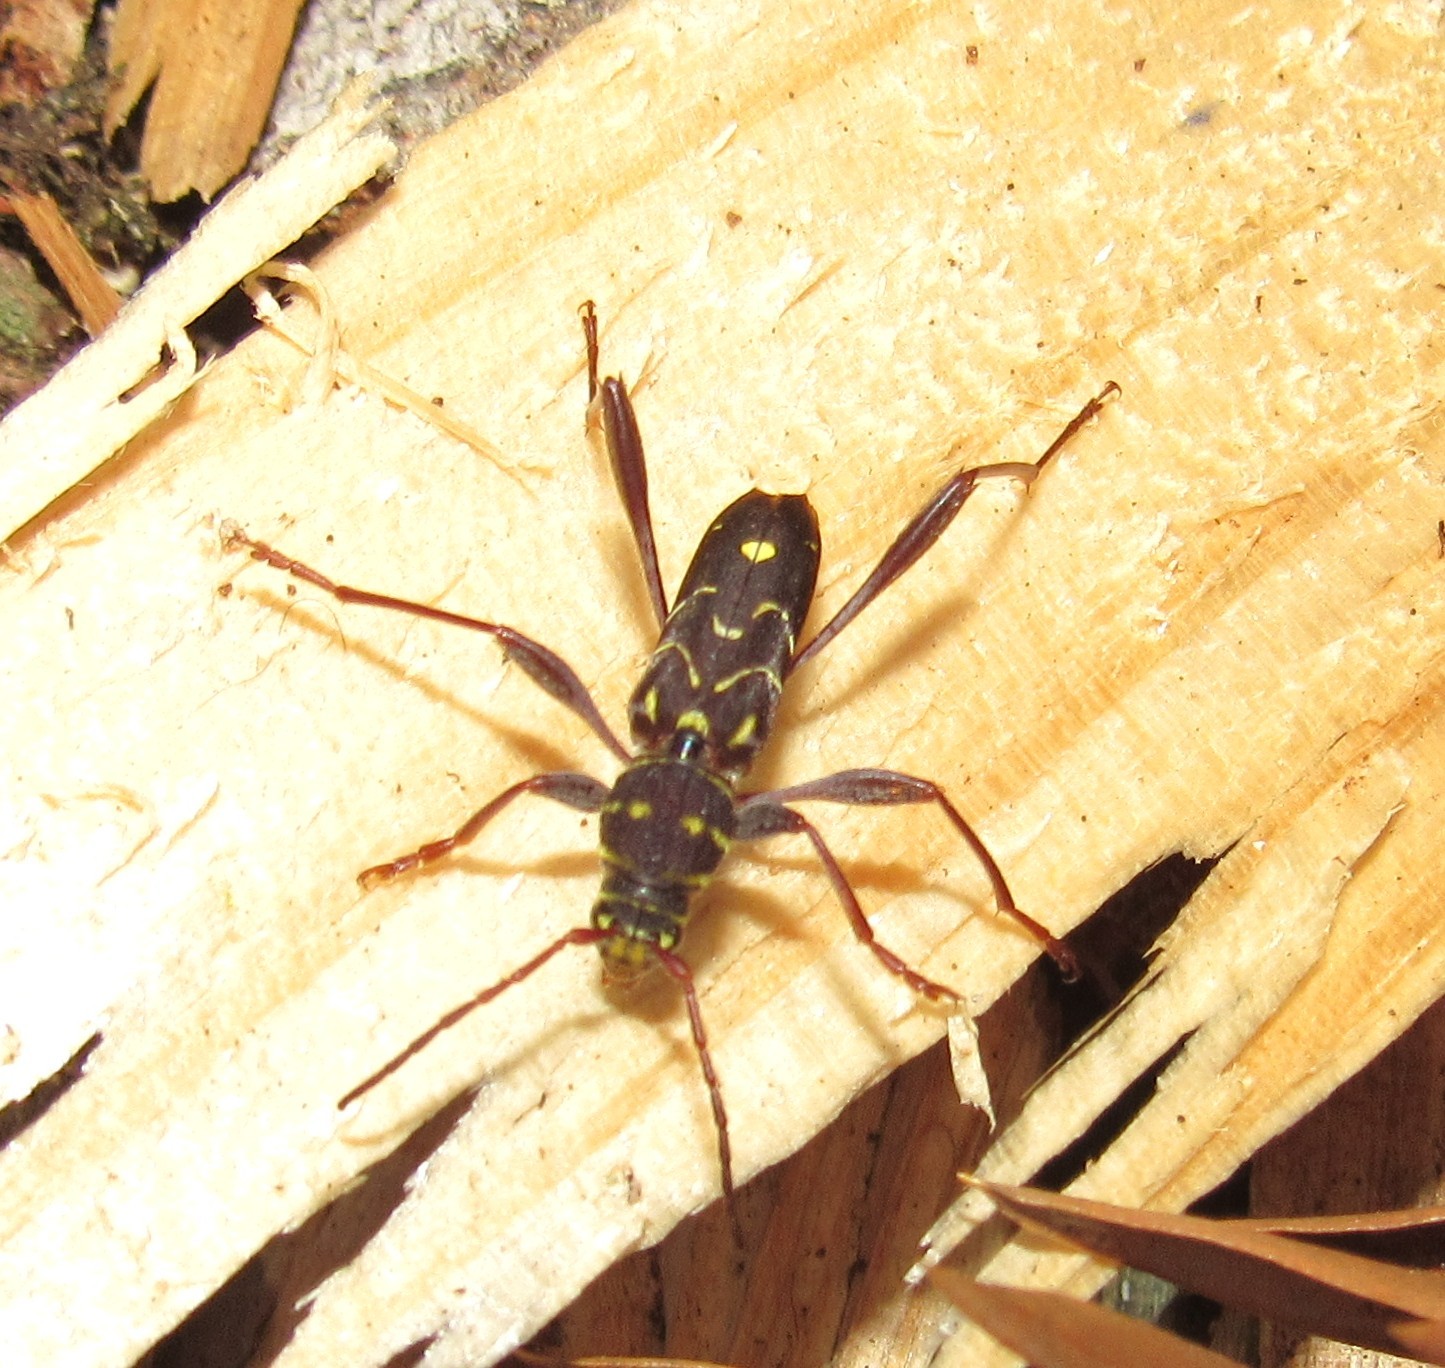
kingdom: Animalia
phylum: Arthropoda
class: Insecta
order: Coleoptera
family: Cerambycidae
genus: Cotyclytus
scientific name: Cotyclytus curvatus
